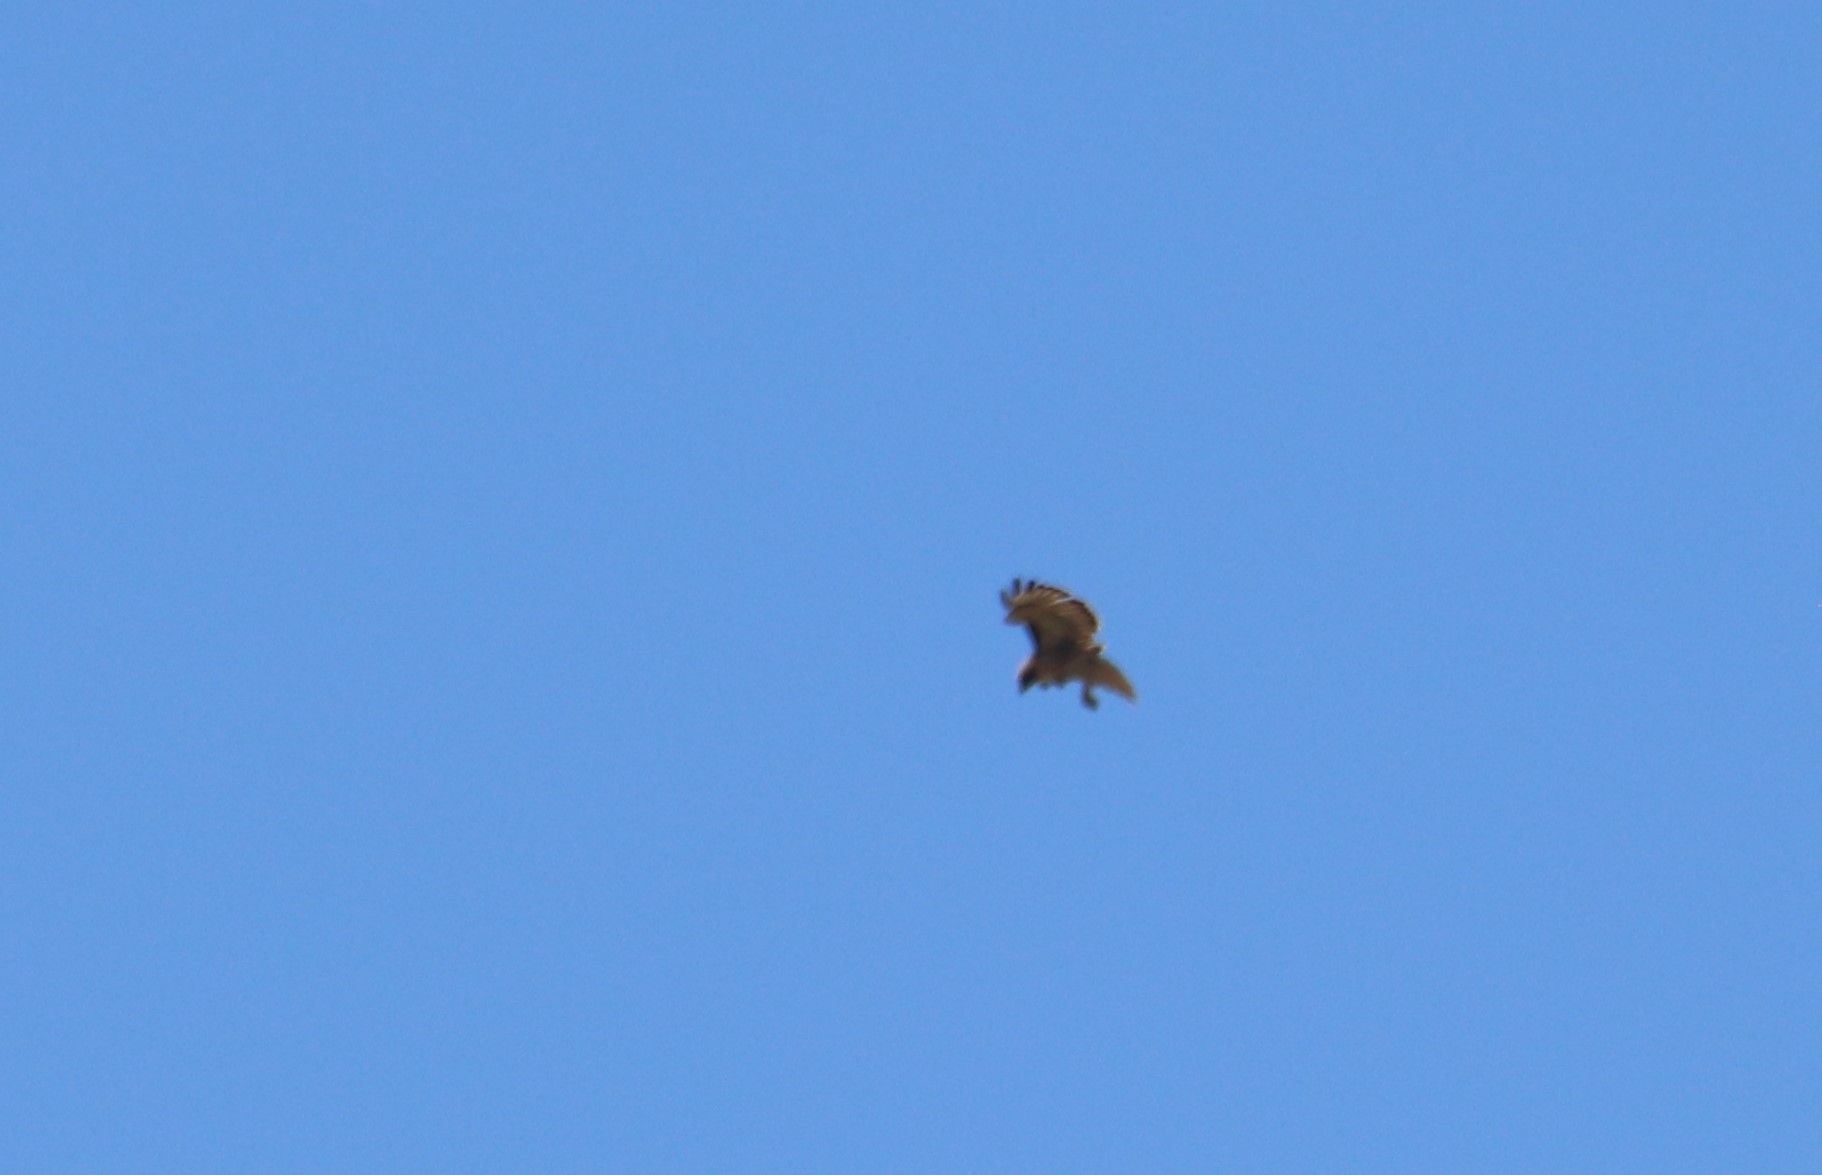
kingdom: Animalia
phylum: Chordata
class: Aves
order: Accipitriformes
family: Accipitridae
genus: Buteo
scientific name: Buteo jamaicensis
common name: Red-tailed hawk
